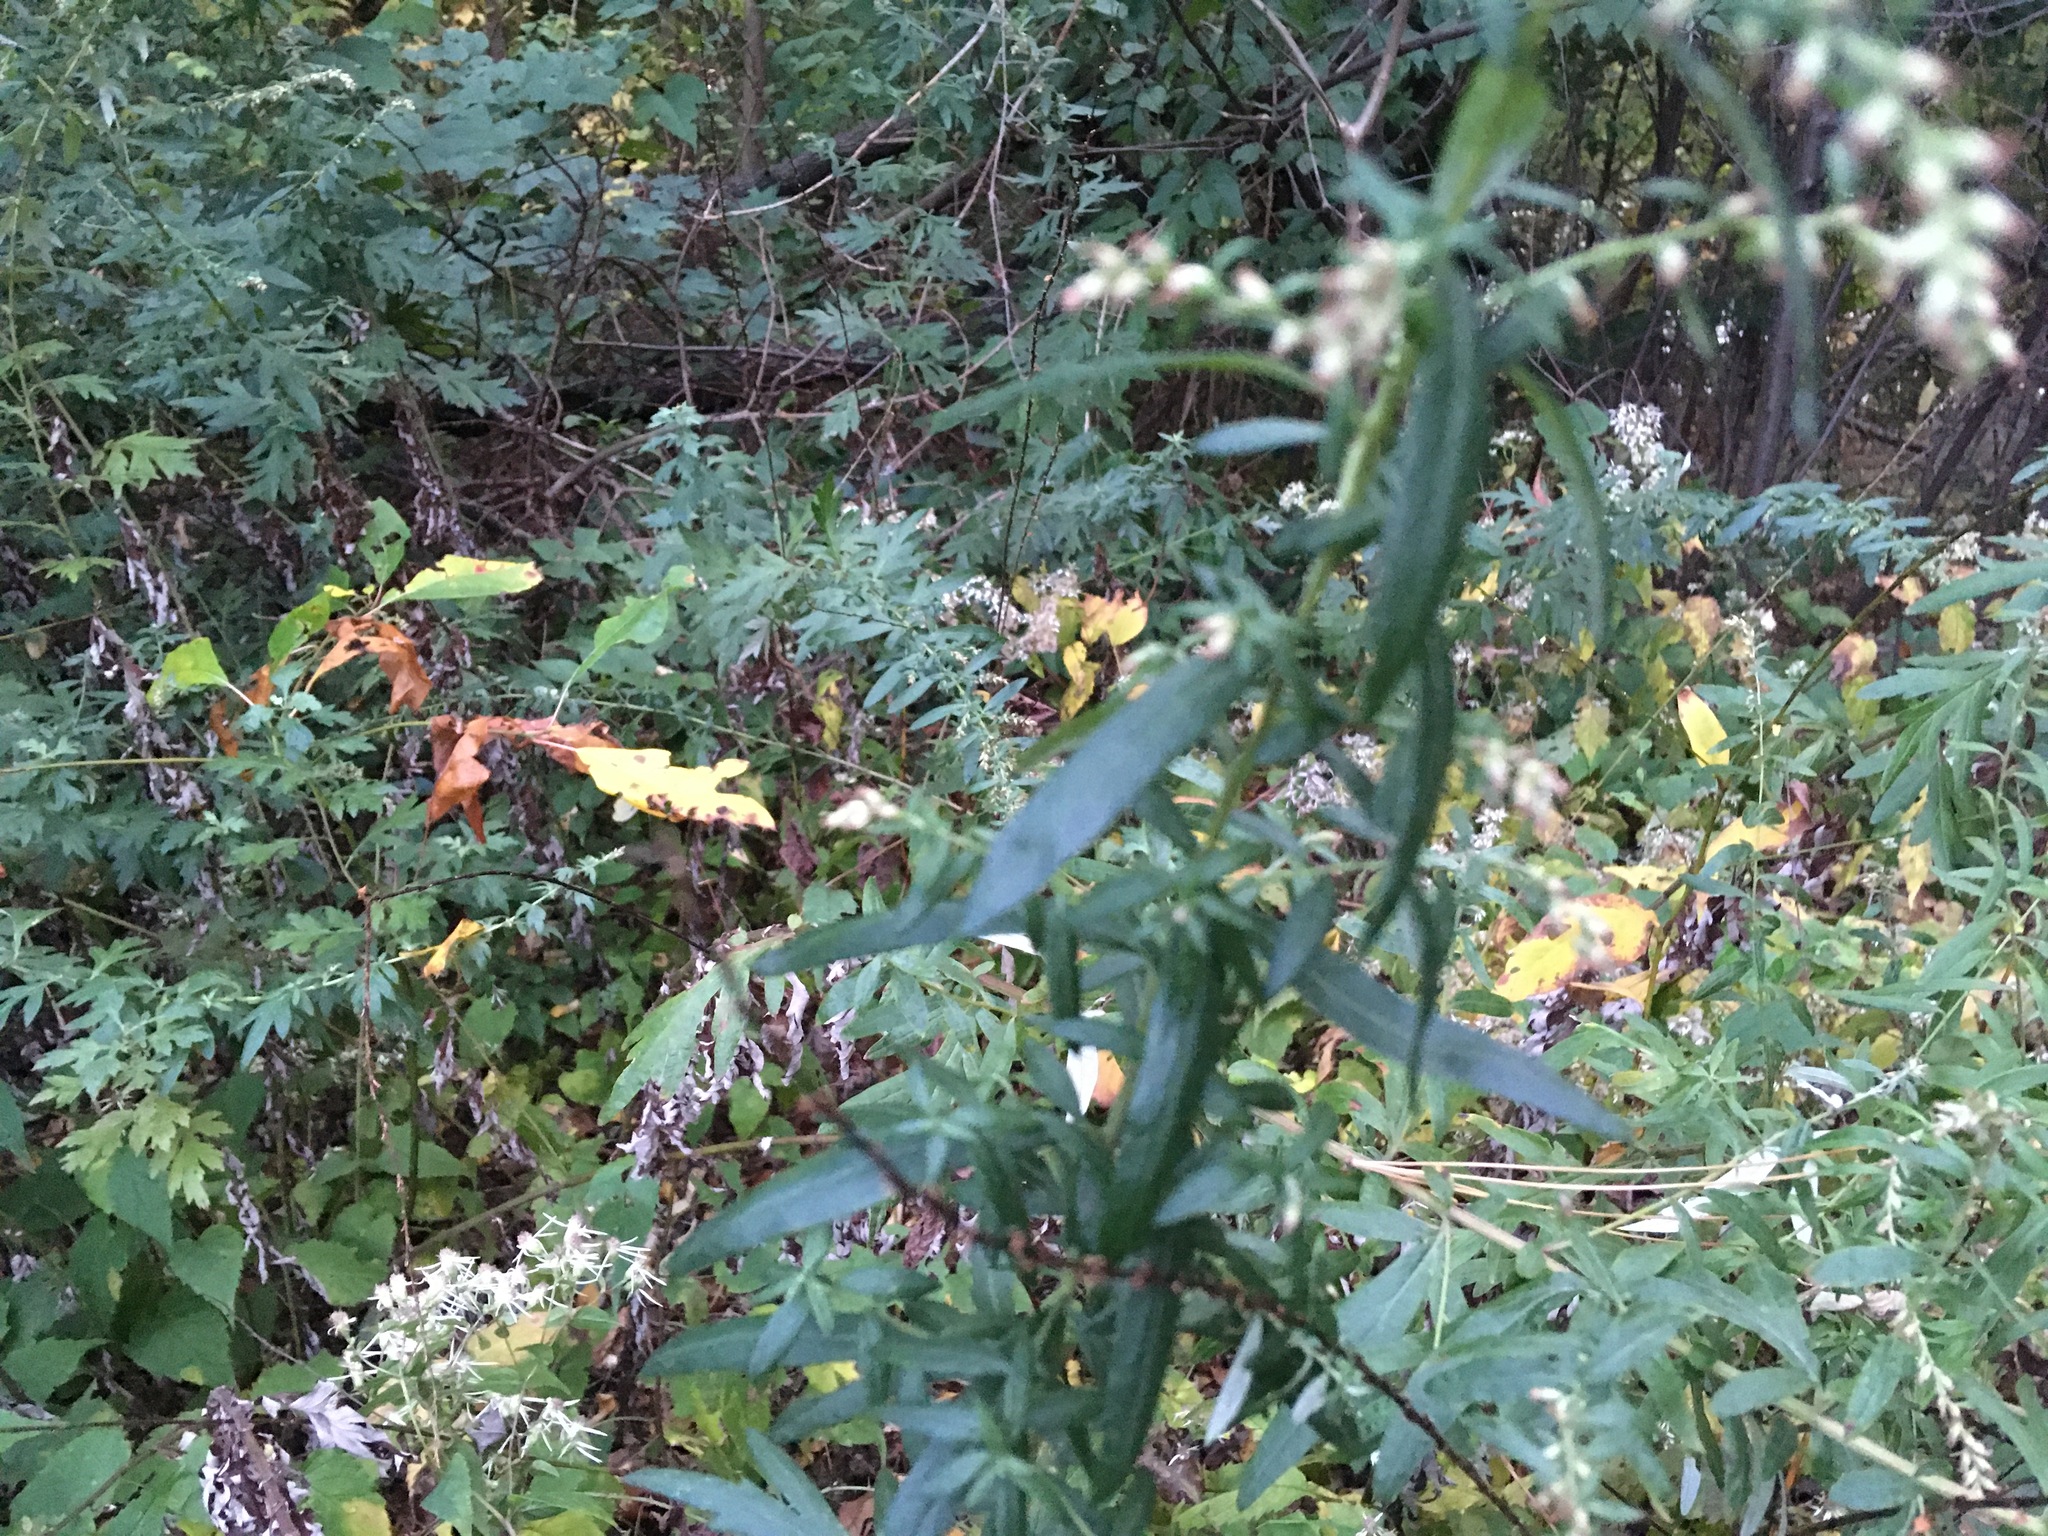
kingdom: Plantae
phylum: Tracheophyta
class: Magnoliopsida
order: Asterales
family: Asteraceae
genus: Artemisia
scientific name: Artemisia vulgaris
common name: Mugwort
